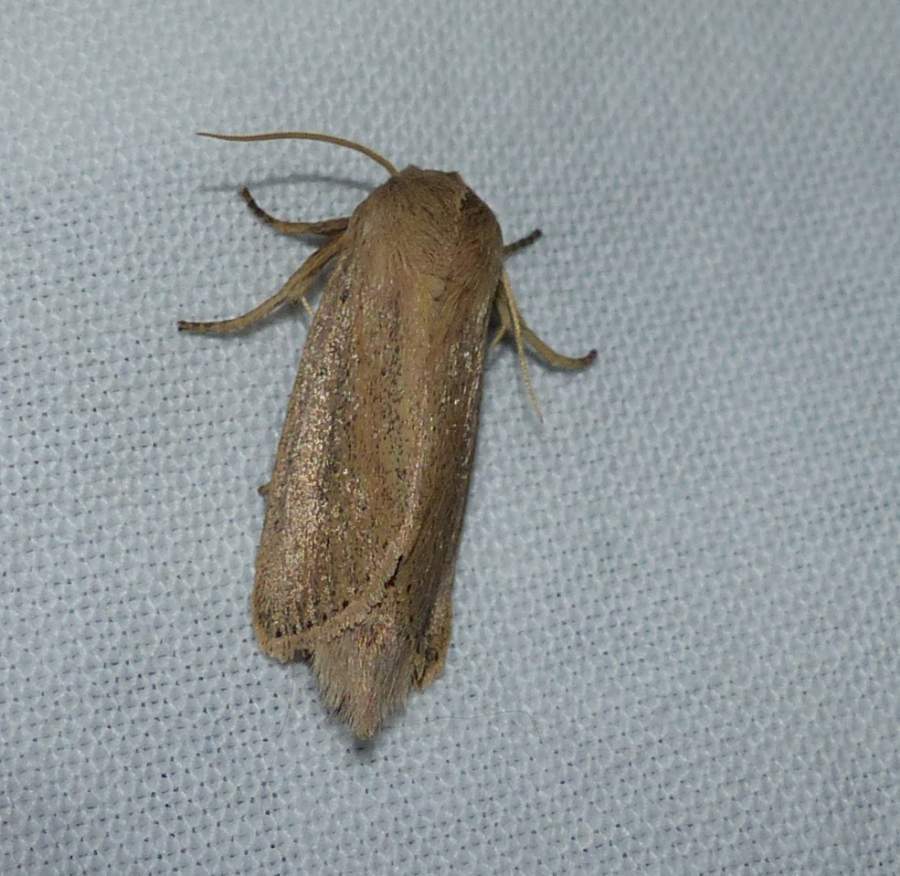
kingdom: Animalia
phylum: Arthropoda
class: Insecta
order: Lepidoptera
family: Noctuidae
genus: Globia
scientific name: Globia oblonga
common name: Oblong sedge borer moth
